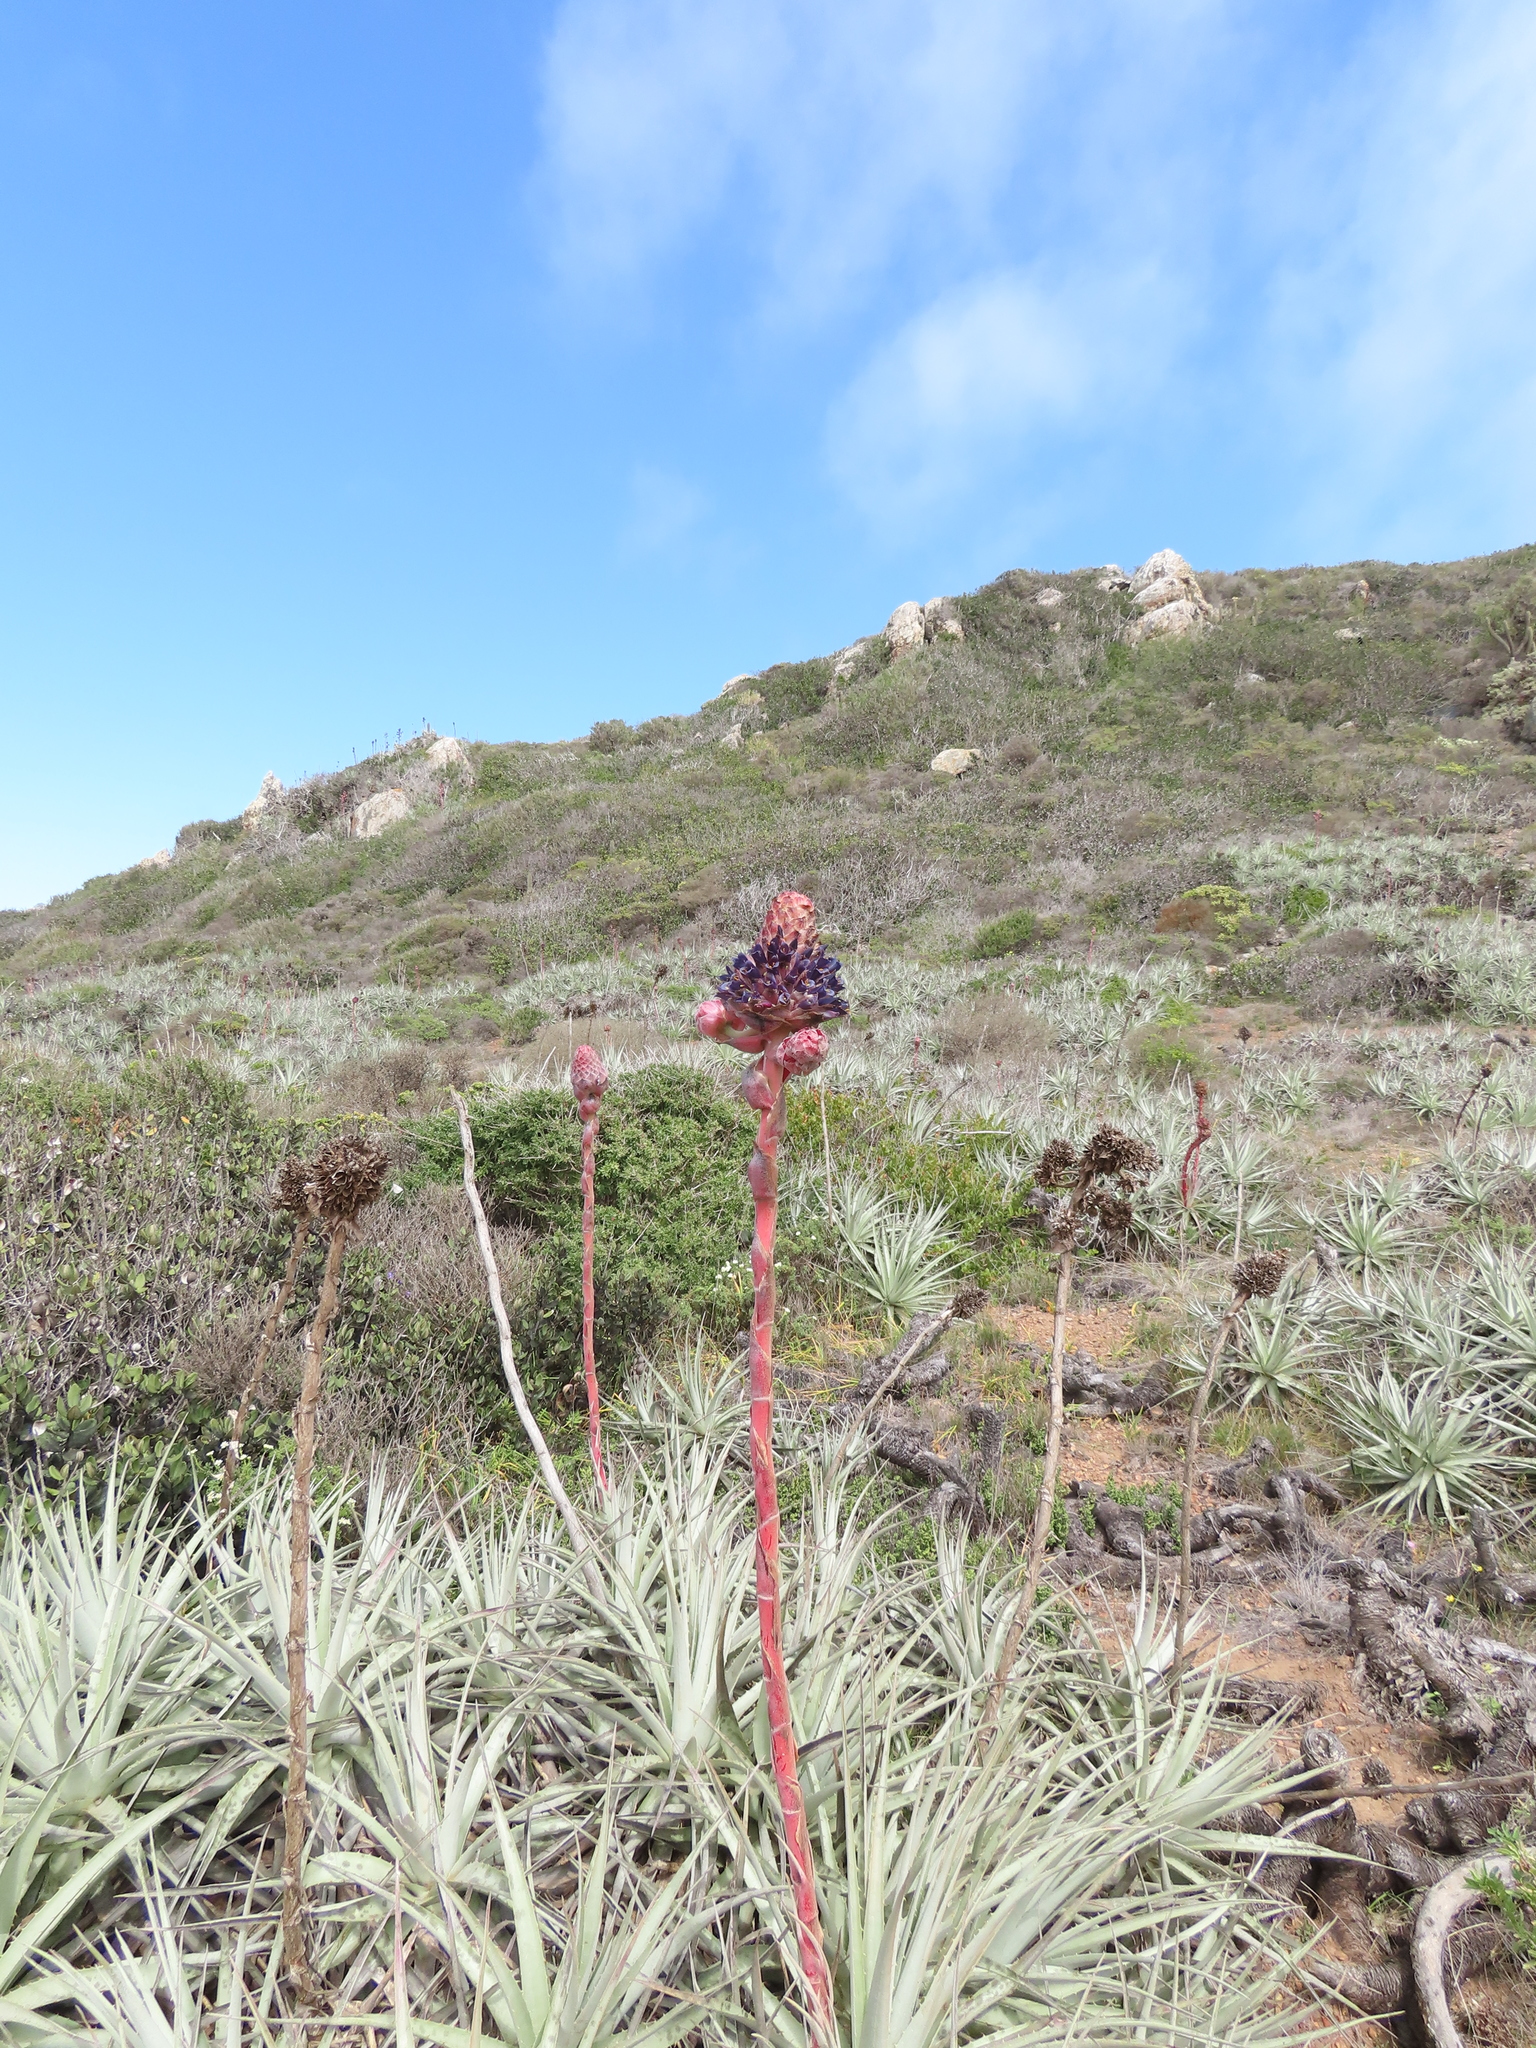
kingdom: Plantae
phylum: Tracheophyta
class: Liliopsida
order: Poales
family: Bromeliaceae
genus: Puya
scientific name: Puya venusta
